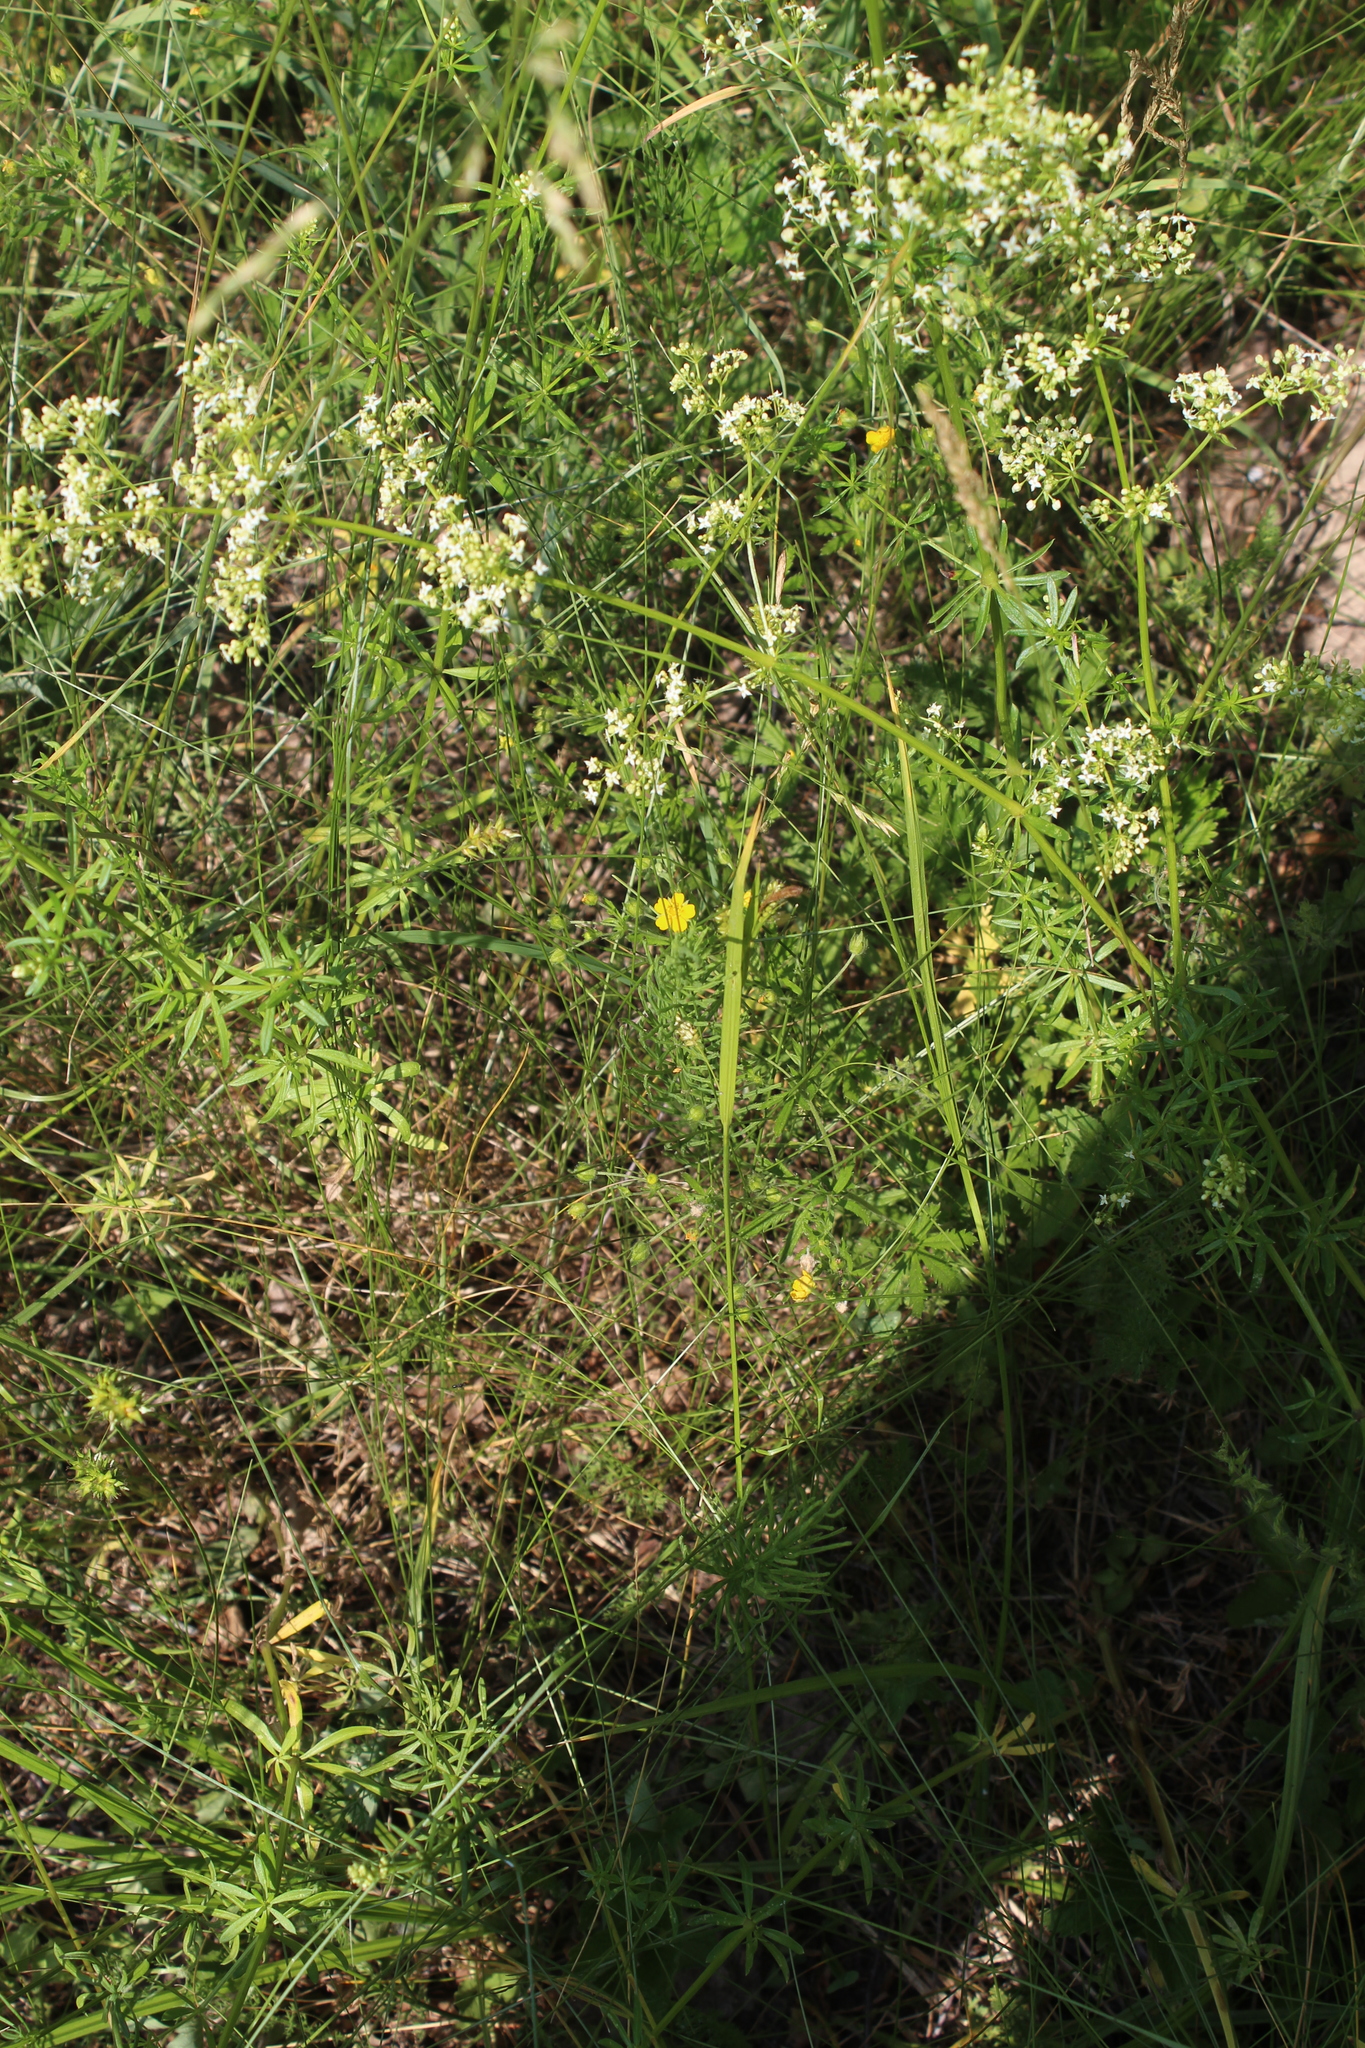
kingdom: Plantae
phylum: Tracheophyta
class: Magnoliopsida
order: Gentianales
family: Rubiaceae
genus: Galium
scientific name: Galium mollugo
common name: Hedge bedstraw
